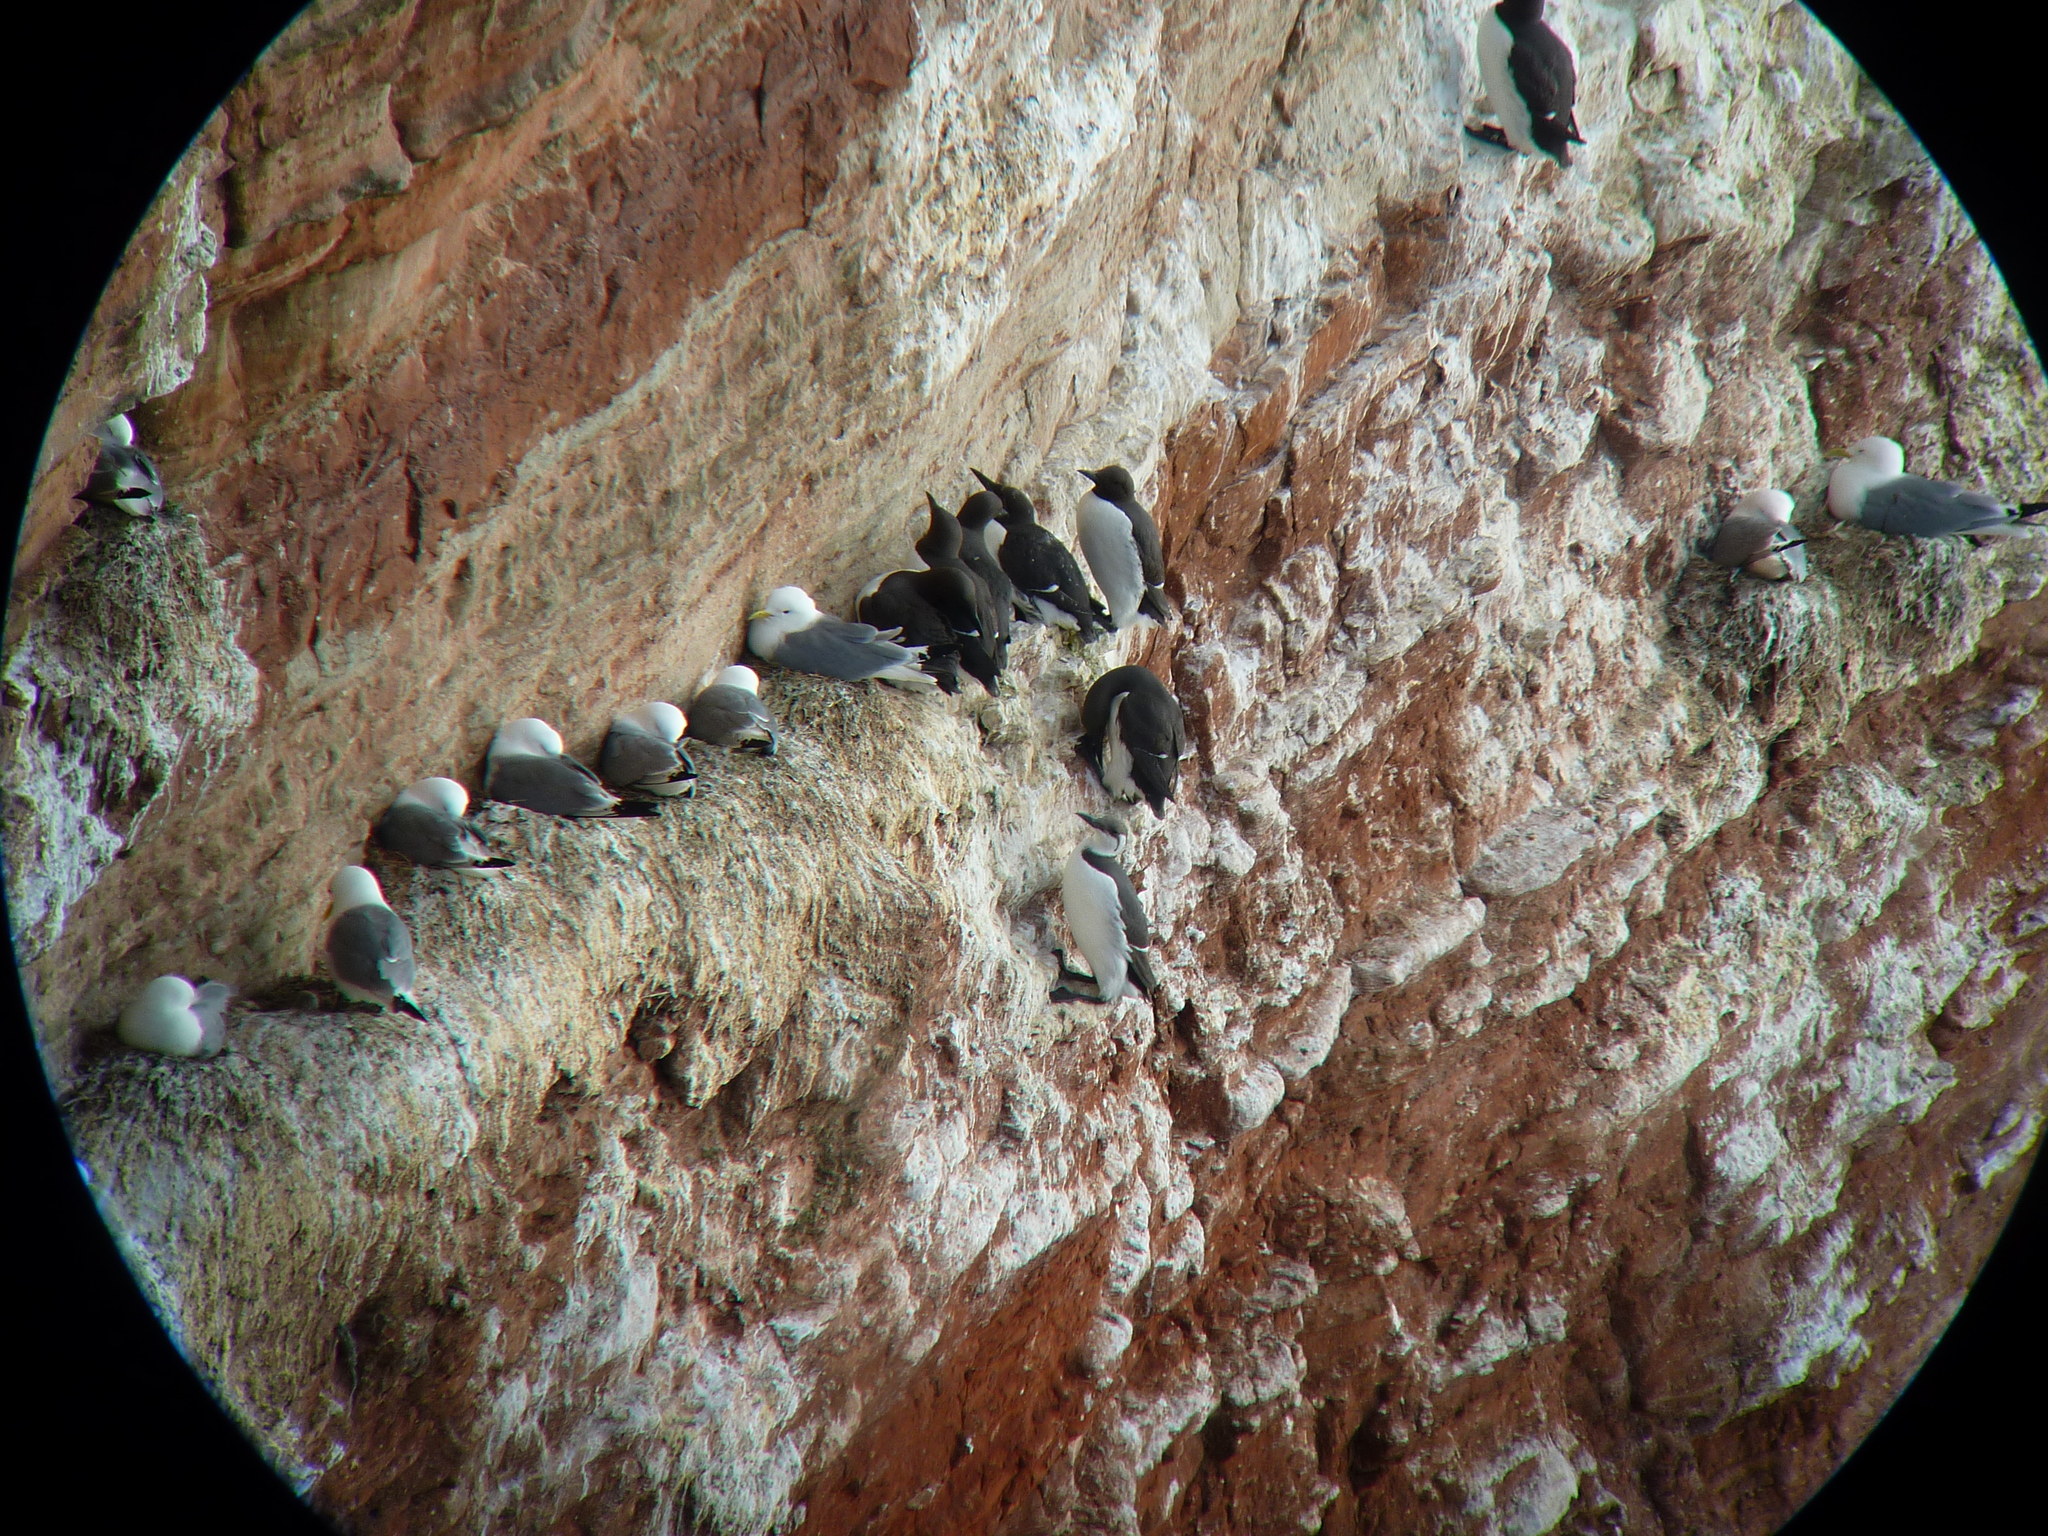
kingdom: Animalia
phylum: Chordata
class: Aves
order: Charadriiformes
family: Laridae
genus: Rissa
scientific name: Rissa tridactyla
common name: Black-legged kittiwake
